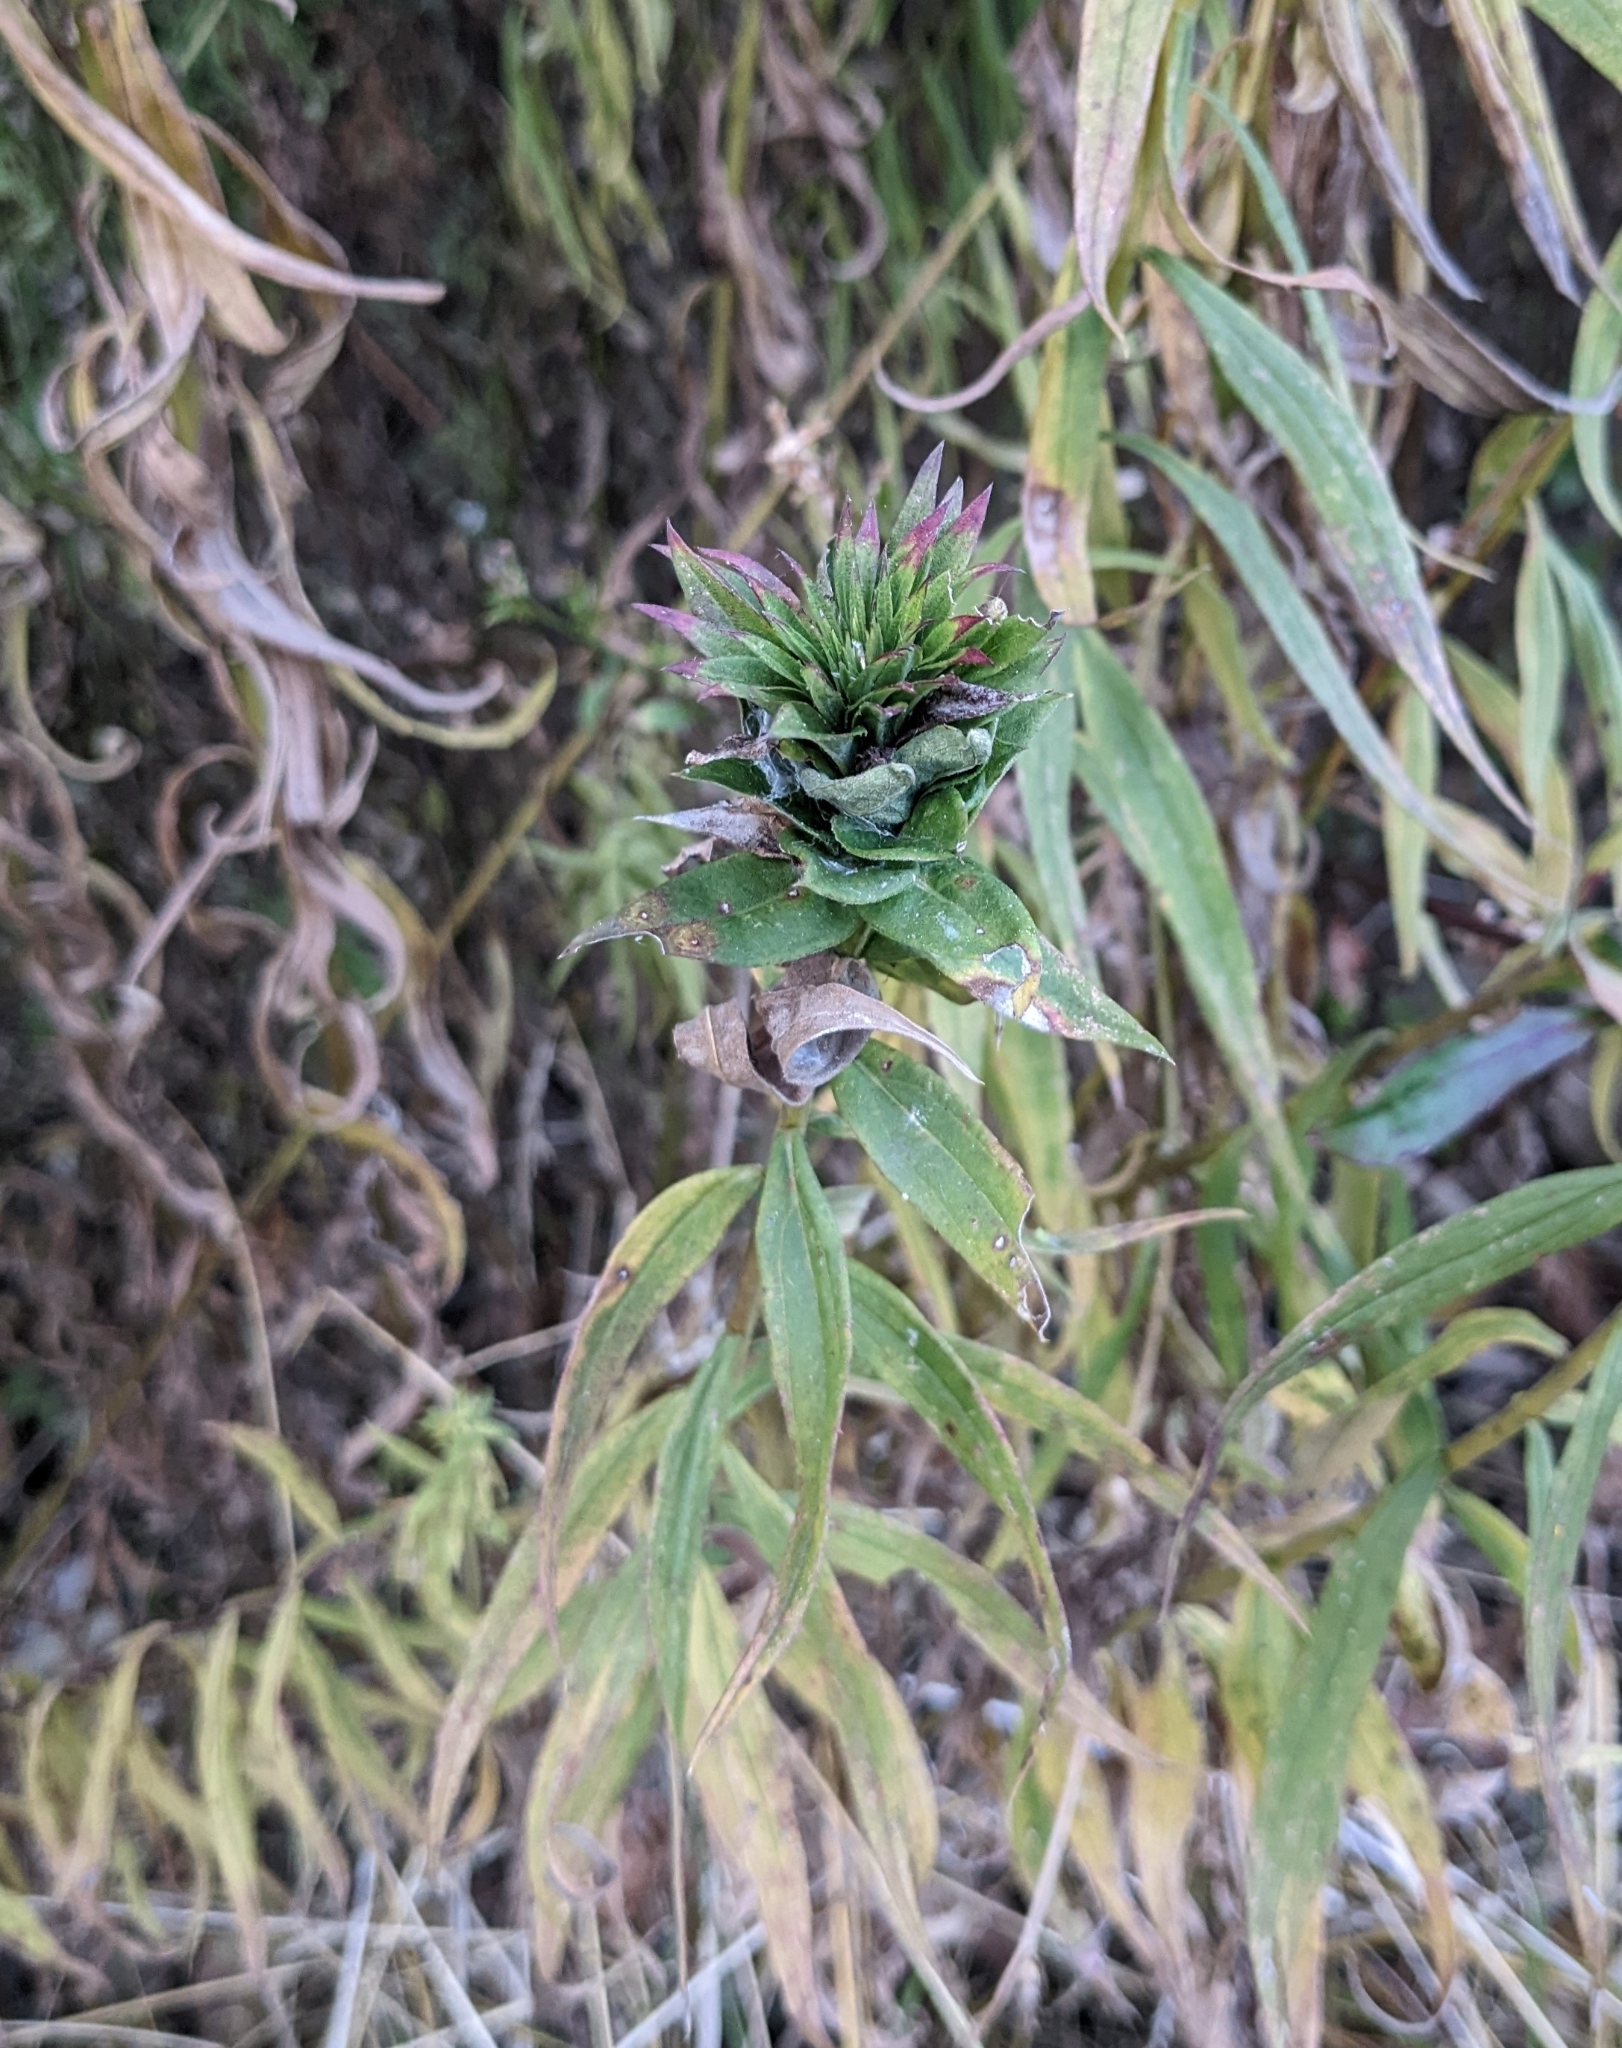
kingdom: Animalia
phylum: Arthropoda
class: Insecta
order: Diptera
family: Cecidomyiidae
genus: Rhopalomyia
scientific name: Rhopalomyia solidaginis
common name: Goldenrod bunch gall midge
